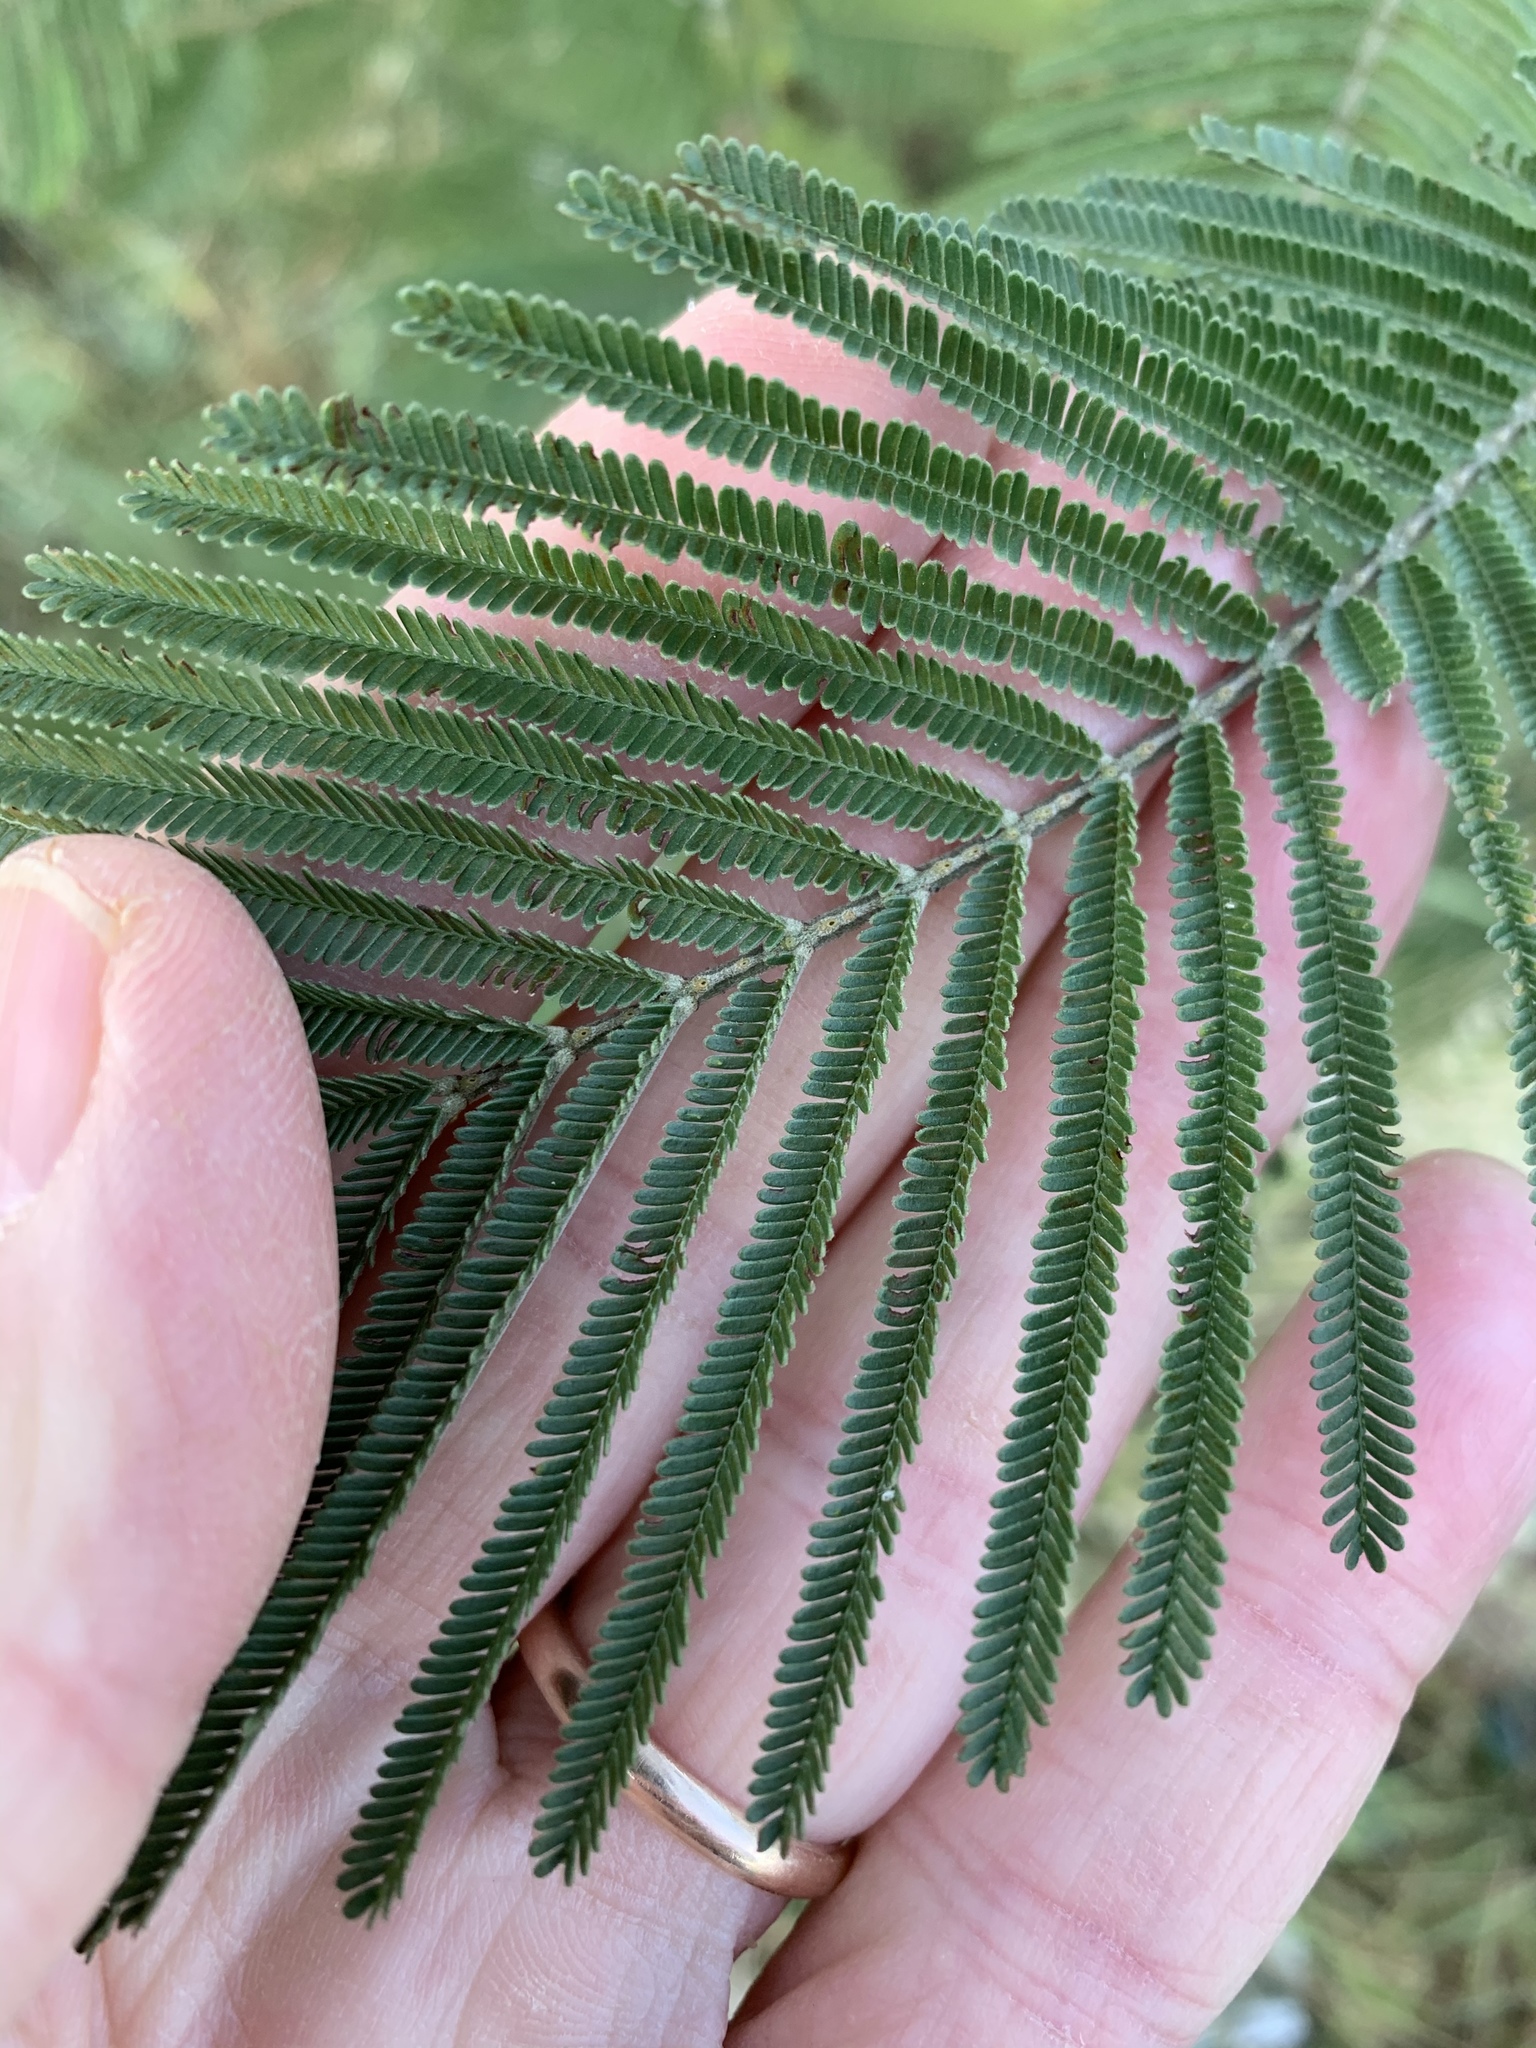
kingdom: Plantae
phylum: Tracheophyta
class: Magnoliopsida
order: Fabales
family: Fabaceae
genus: Acacia
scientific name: Acacia mearnsii
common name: Black wattle
